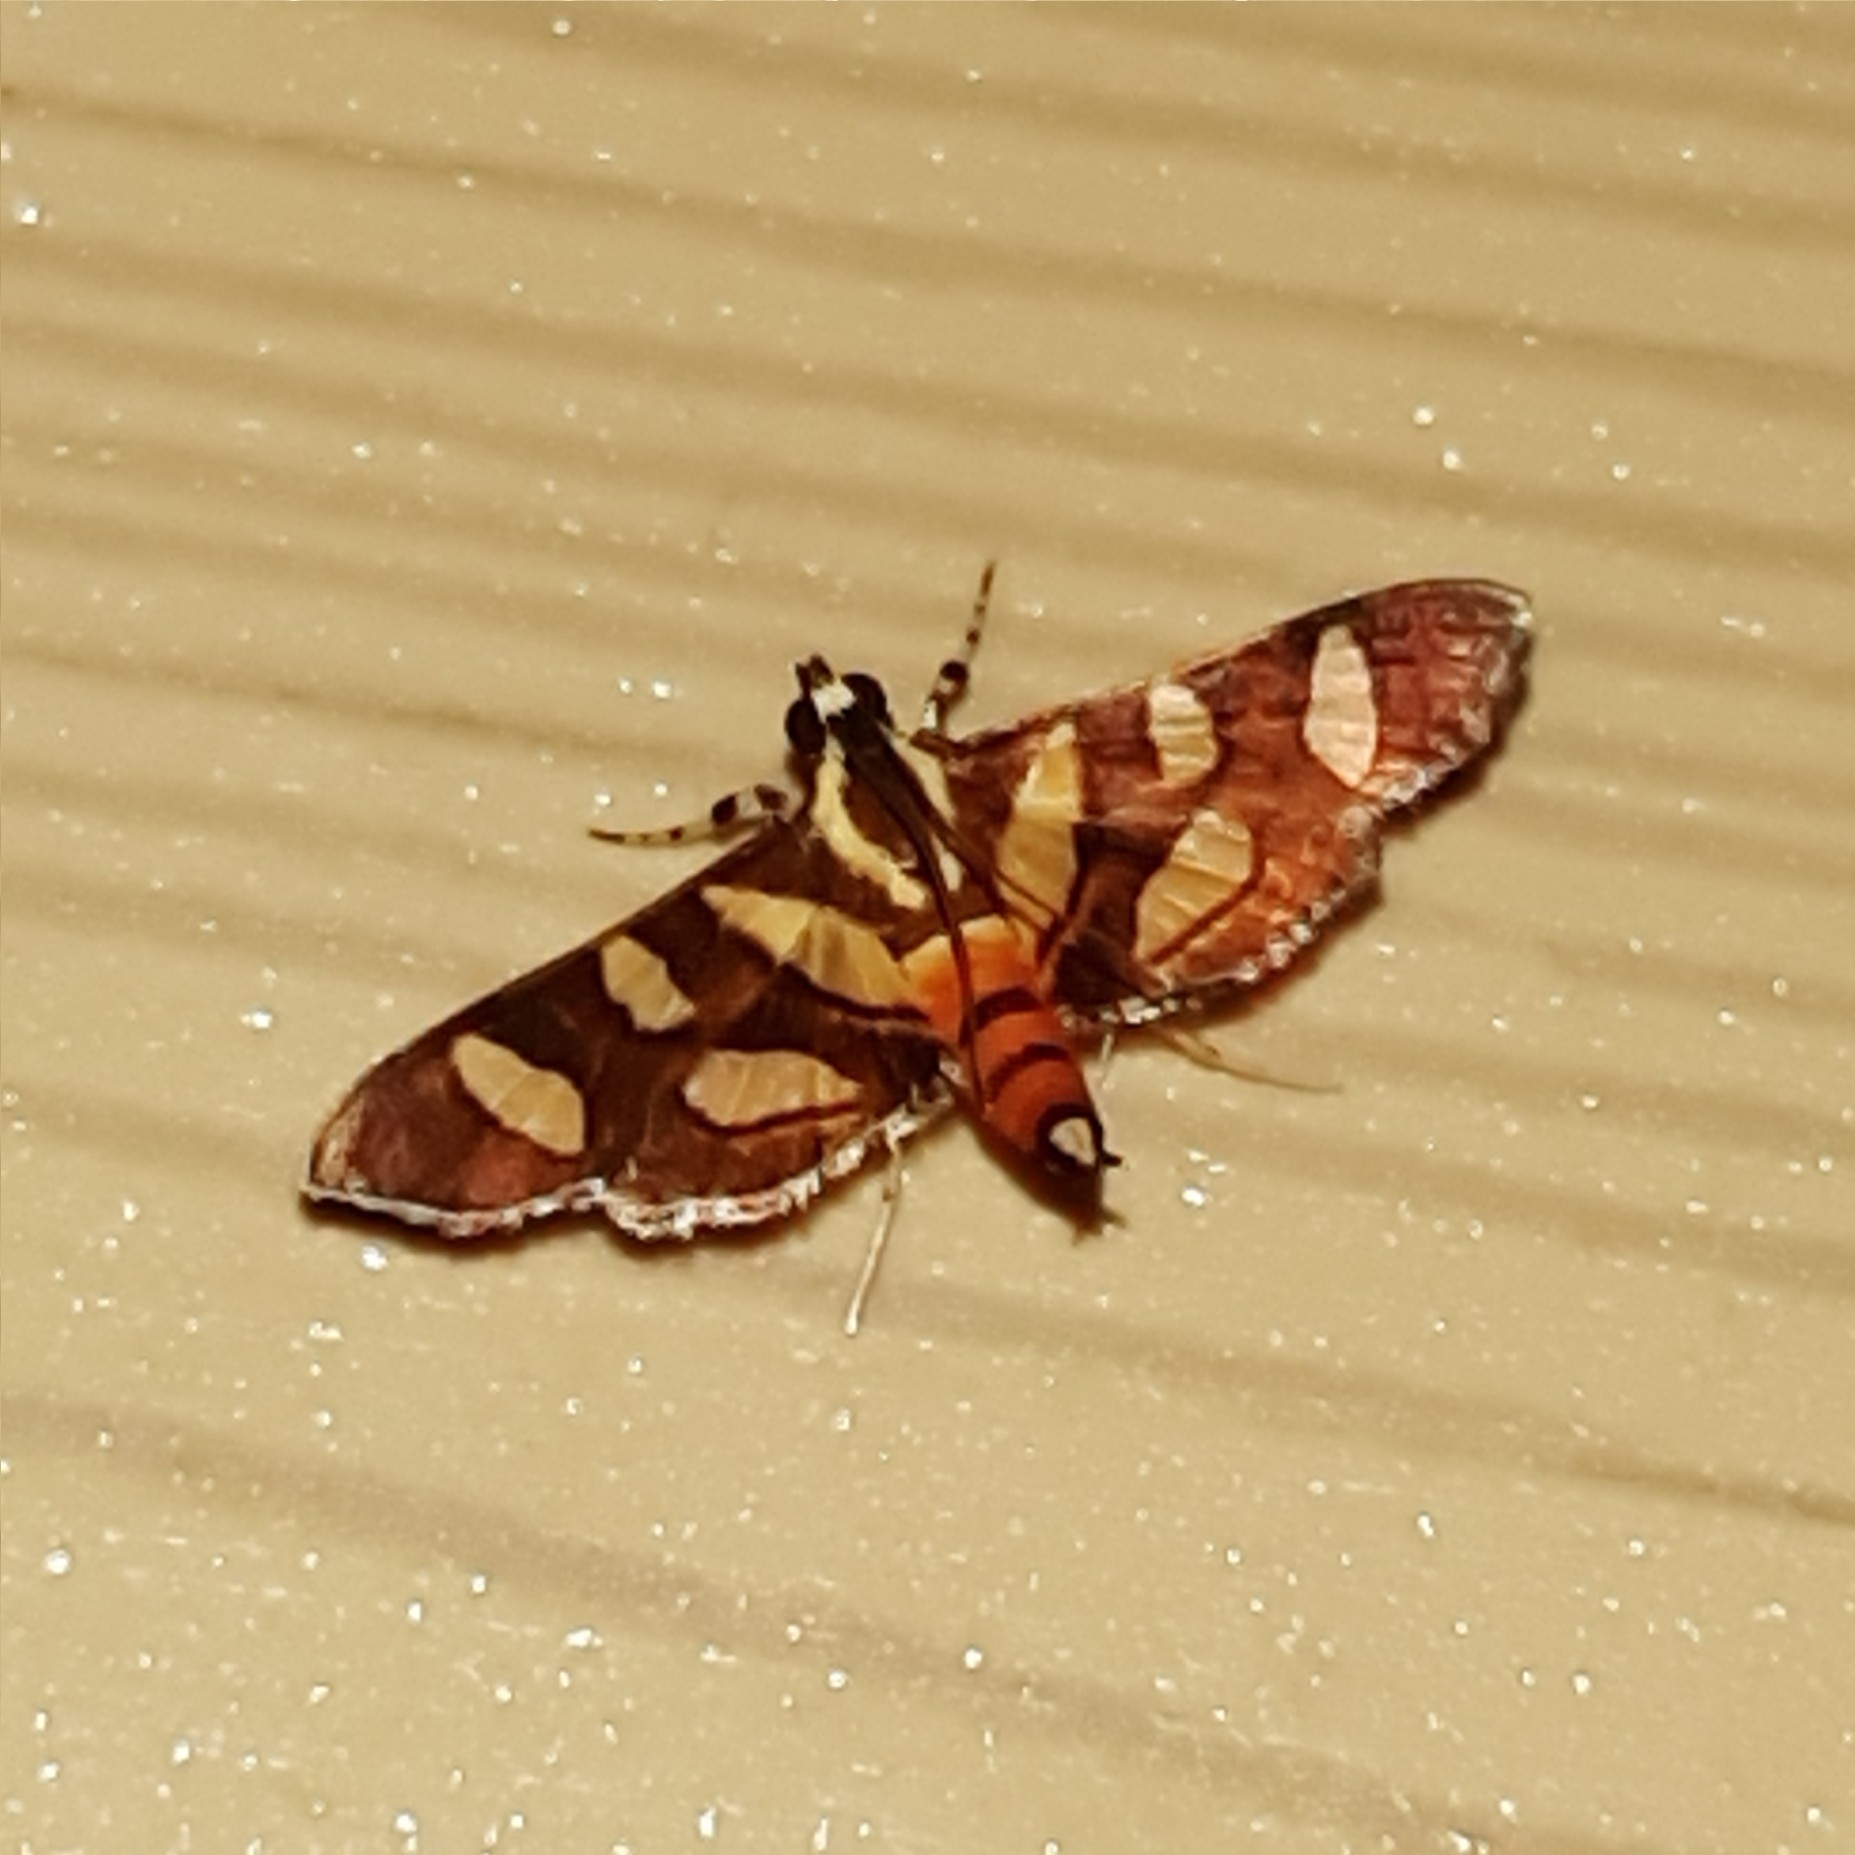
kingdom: Animalia
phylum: Arthropoda
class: Insecta
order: Lepidoptera
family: Crambidae
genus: Syngamia
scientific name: Syngamia florella
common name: Orange-spotted flower moth
